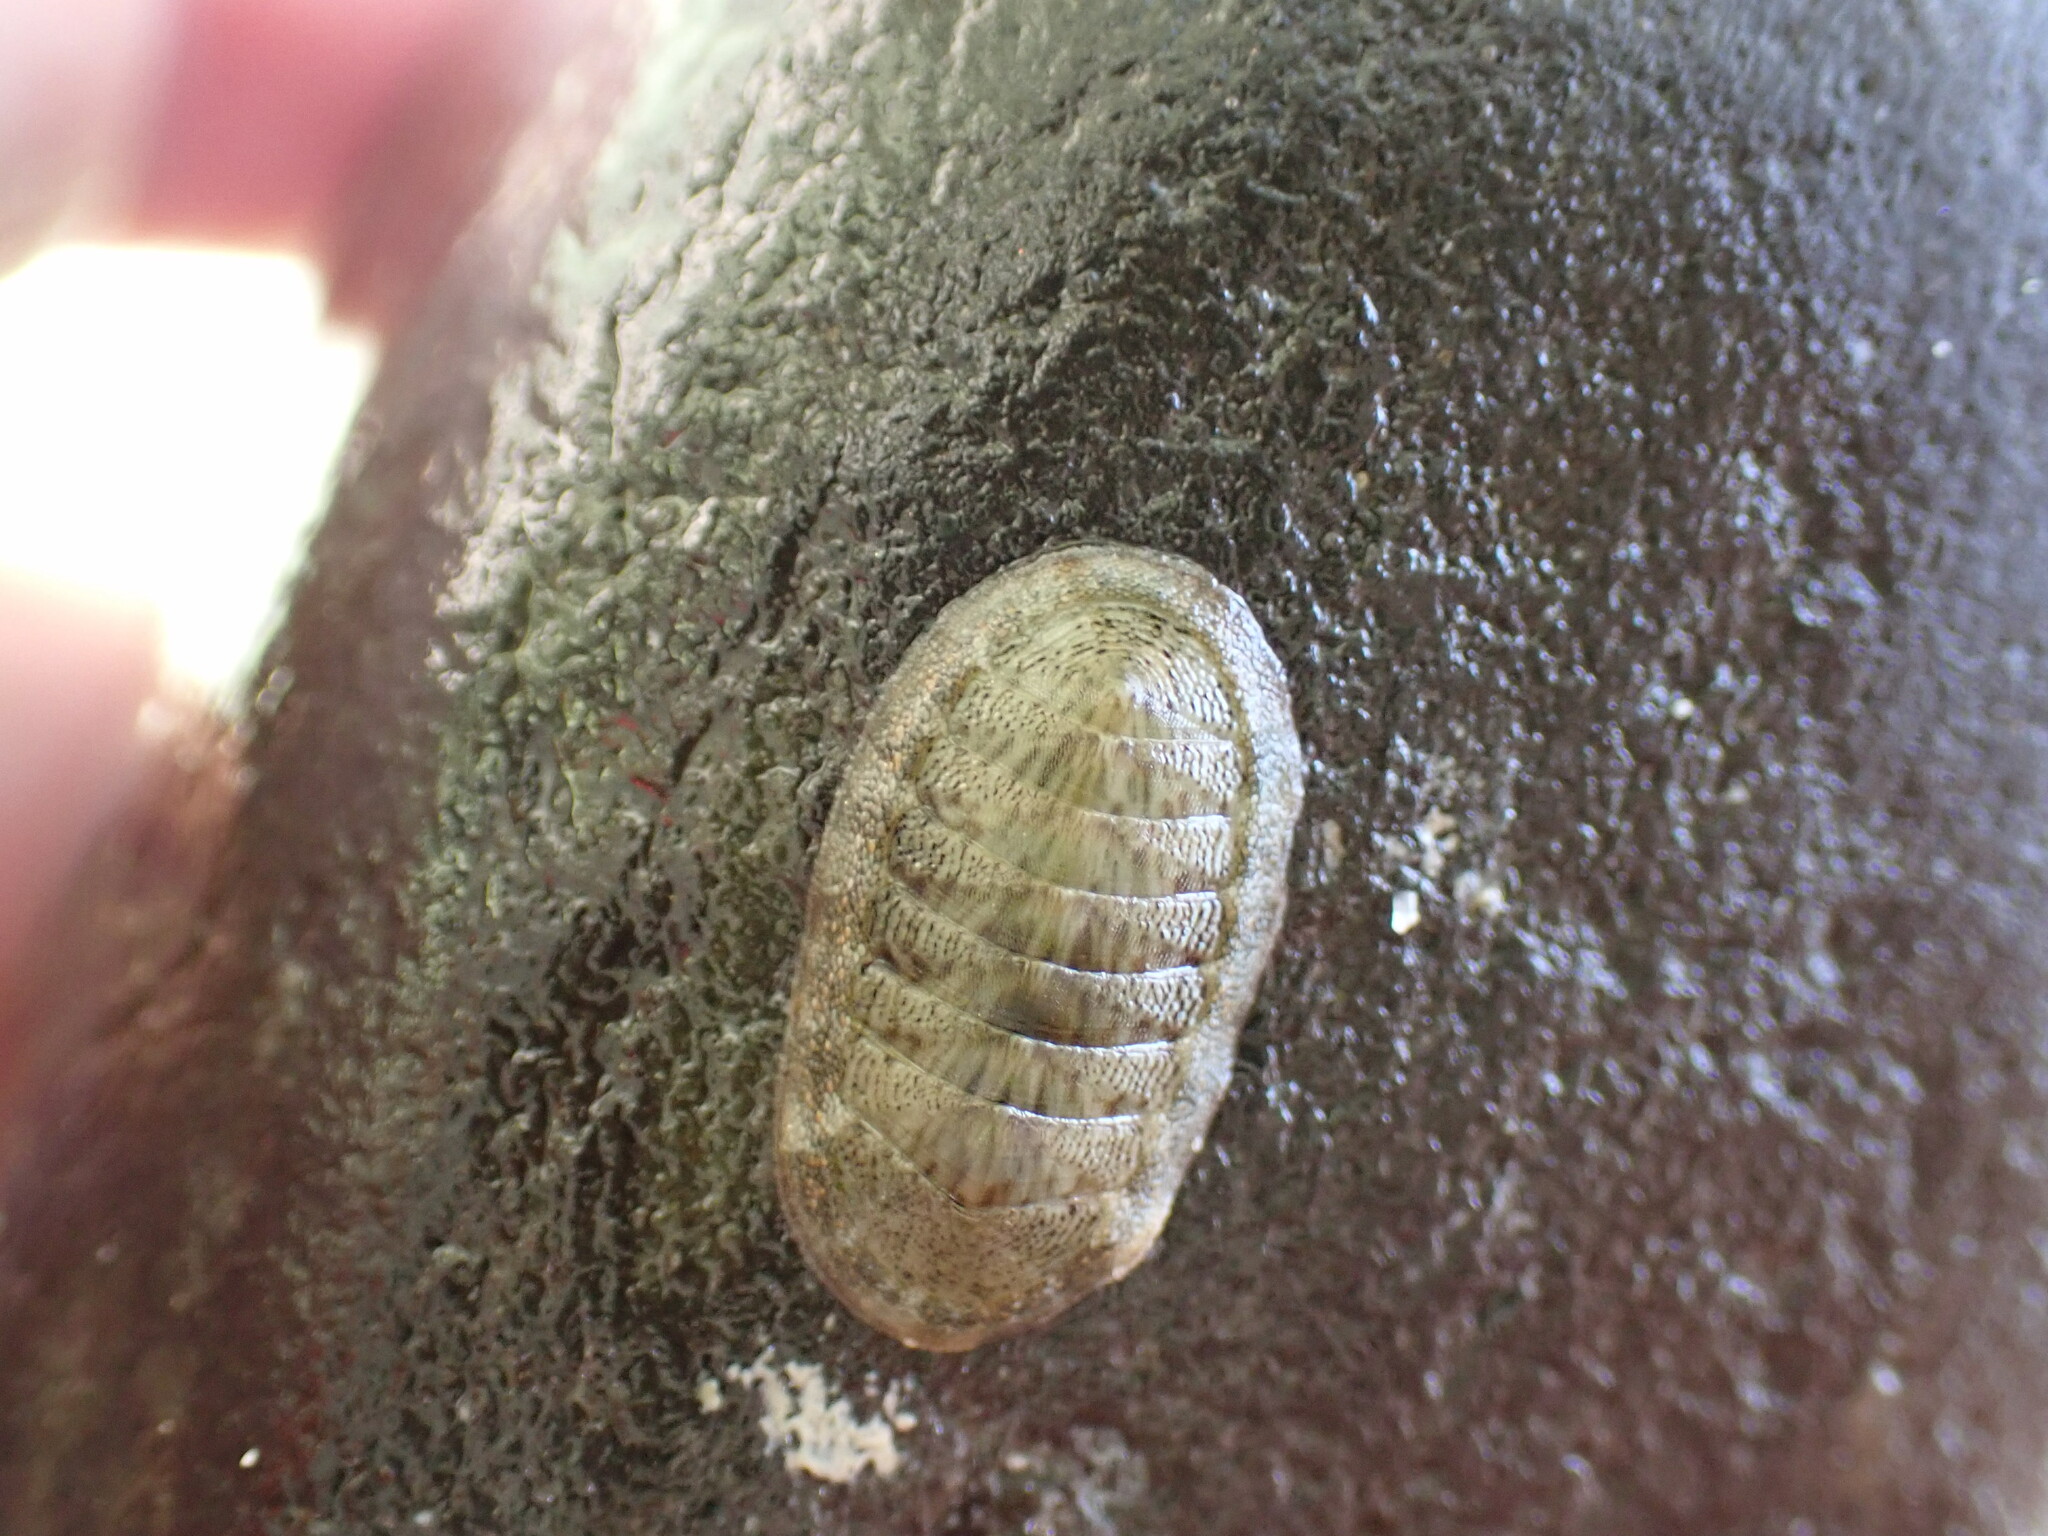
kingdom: Animalia
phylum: Mollusca
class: Polyplacophora
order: Chitonida
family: Ischnochitonidae
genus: Ischnochiton
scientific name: Ischnochiton dispar
